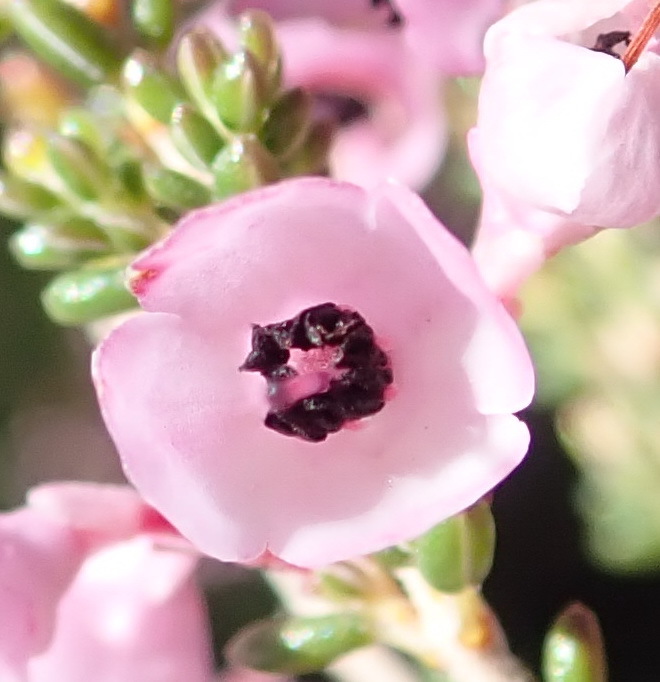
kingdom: Plantae
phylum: Tracheophyta
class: Magnoliopsida
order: Ericales
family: Ericaceae
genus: Erica
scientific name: Erica melanthera
